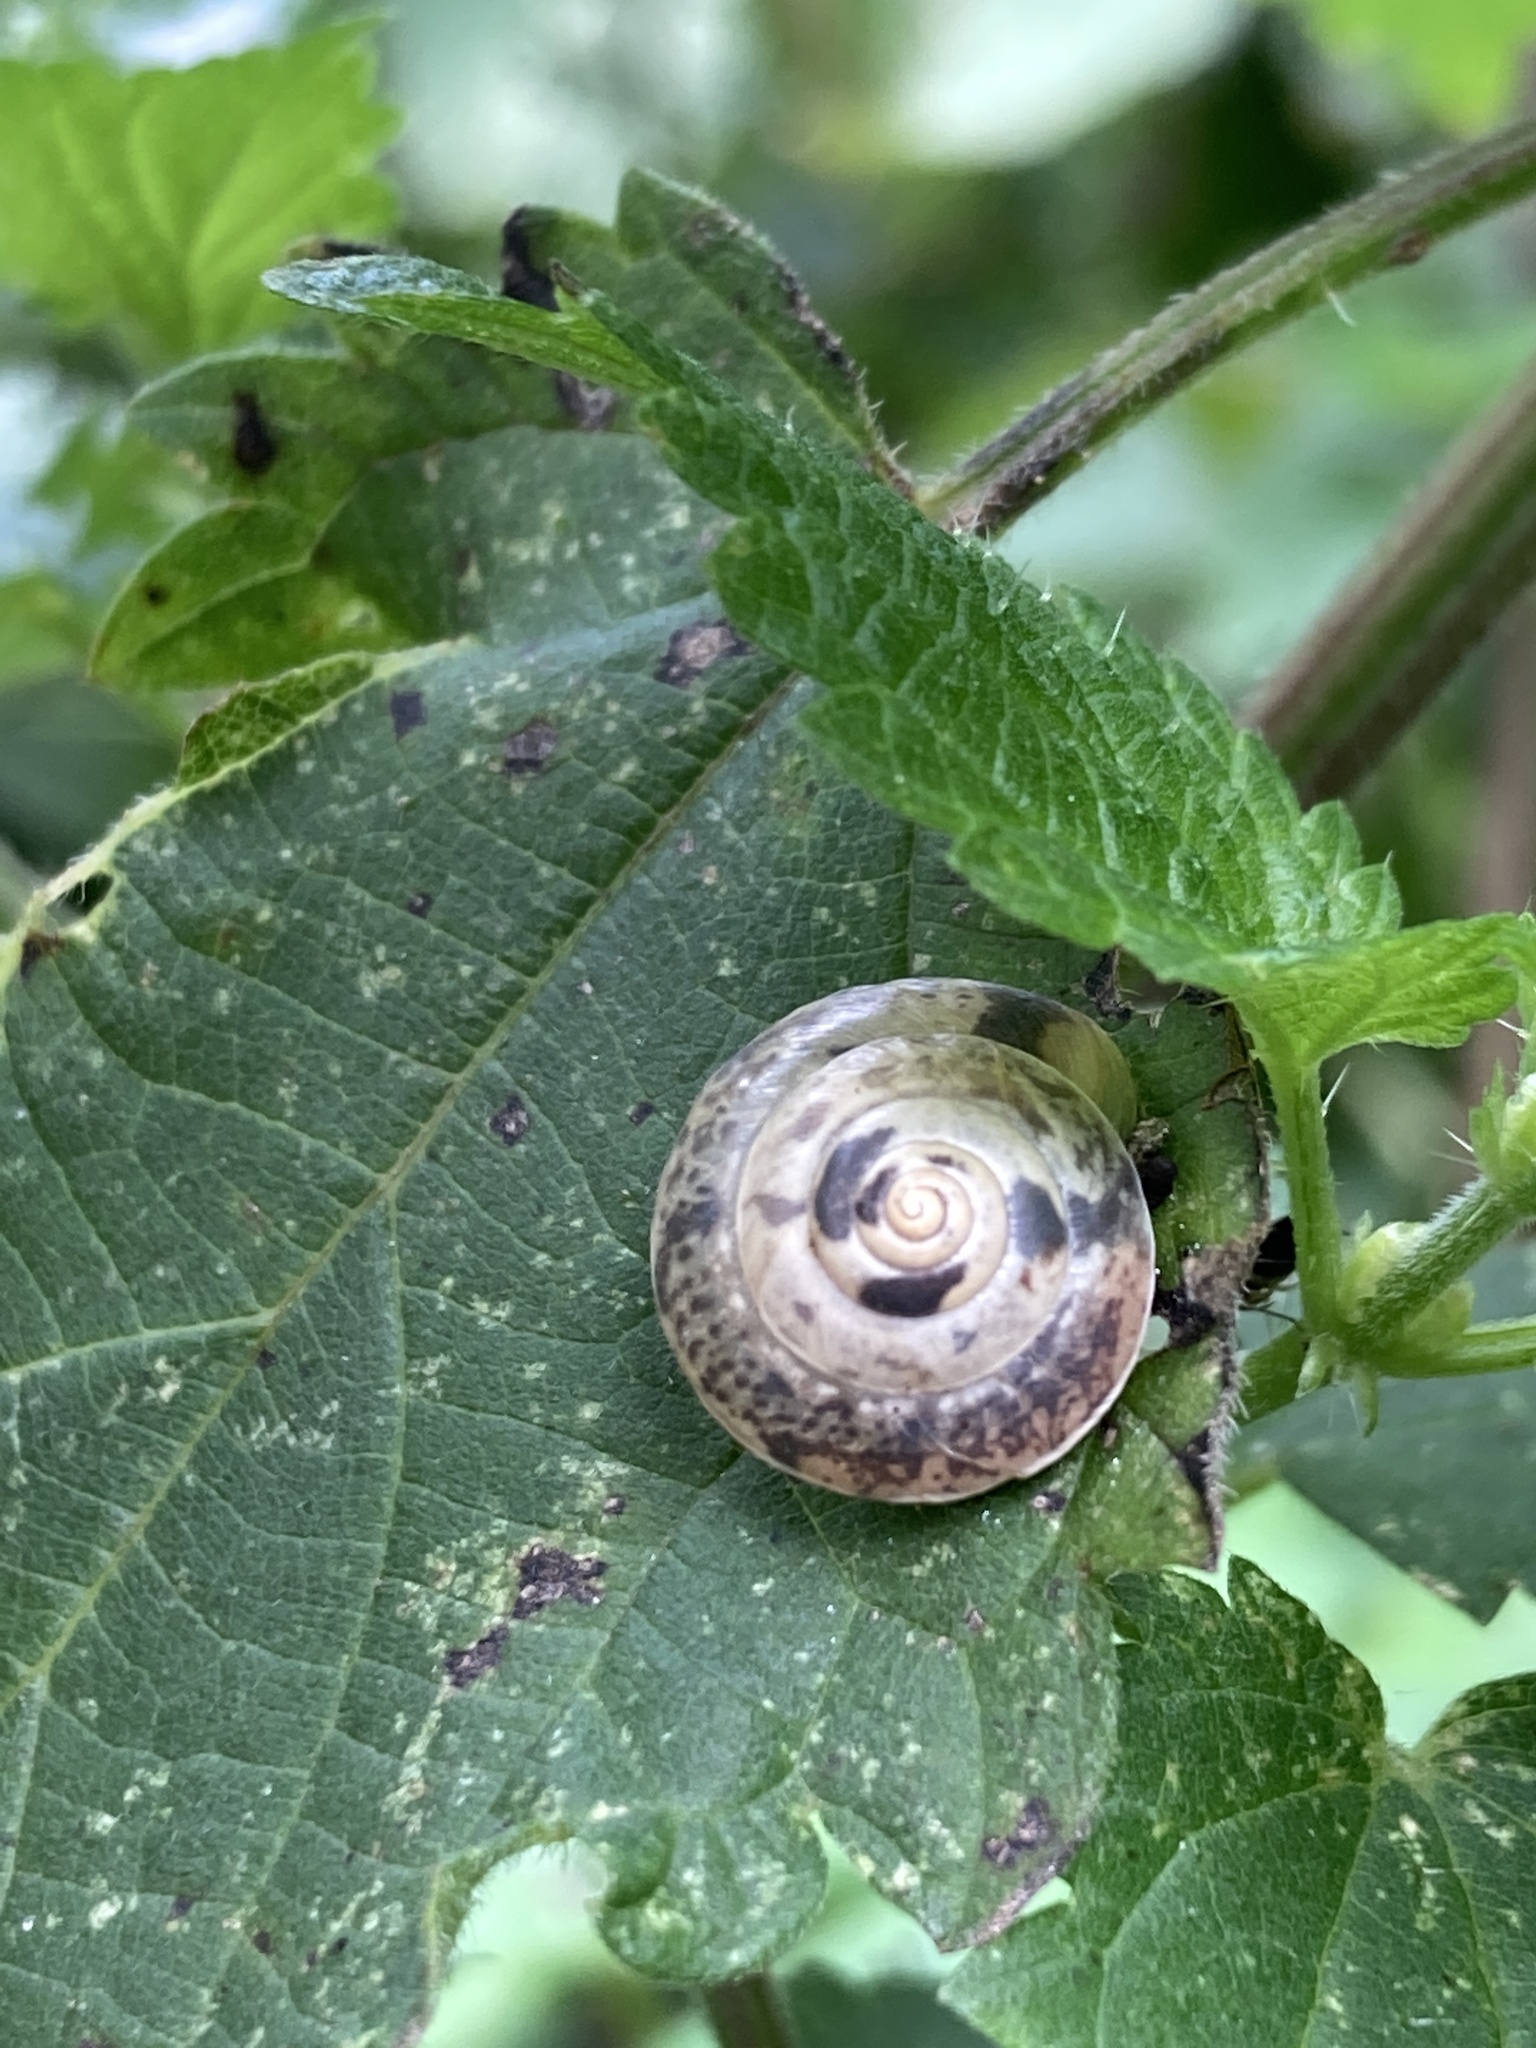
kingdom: Animalia
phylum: Mollusca
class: Gastropoda
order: Stylommatophora
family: Hygromiidae
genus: Hygromia
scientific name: Hygromia cinctella
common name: Girdled snail
